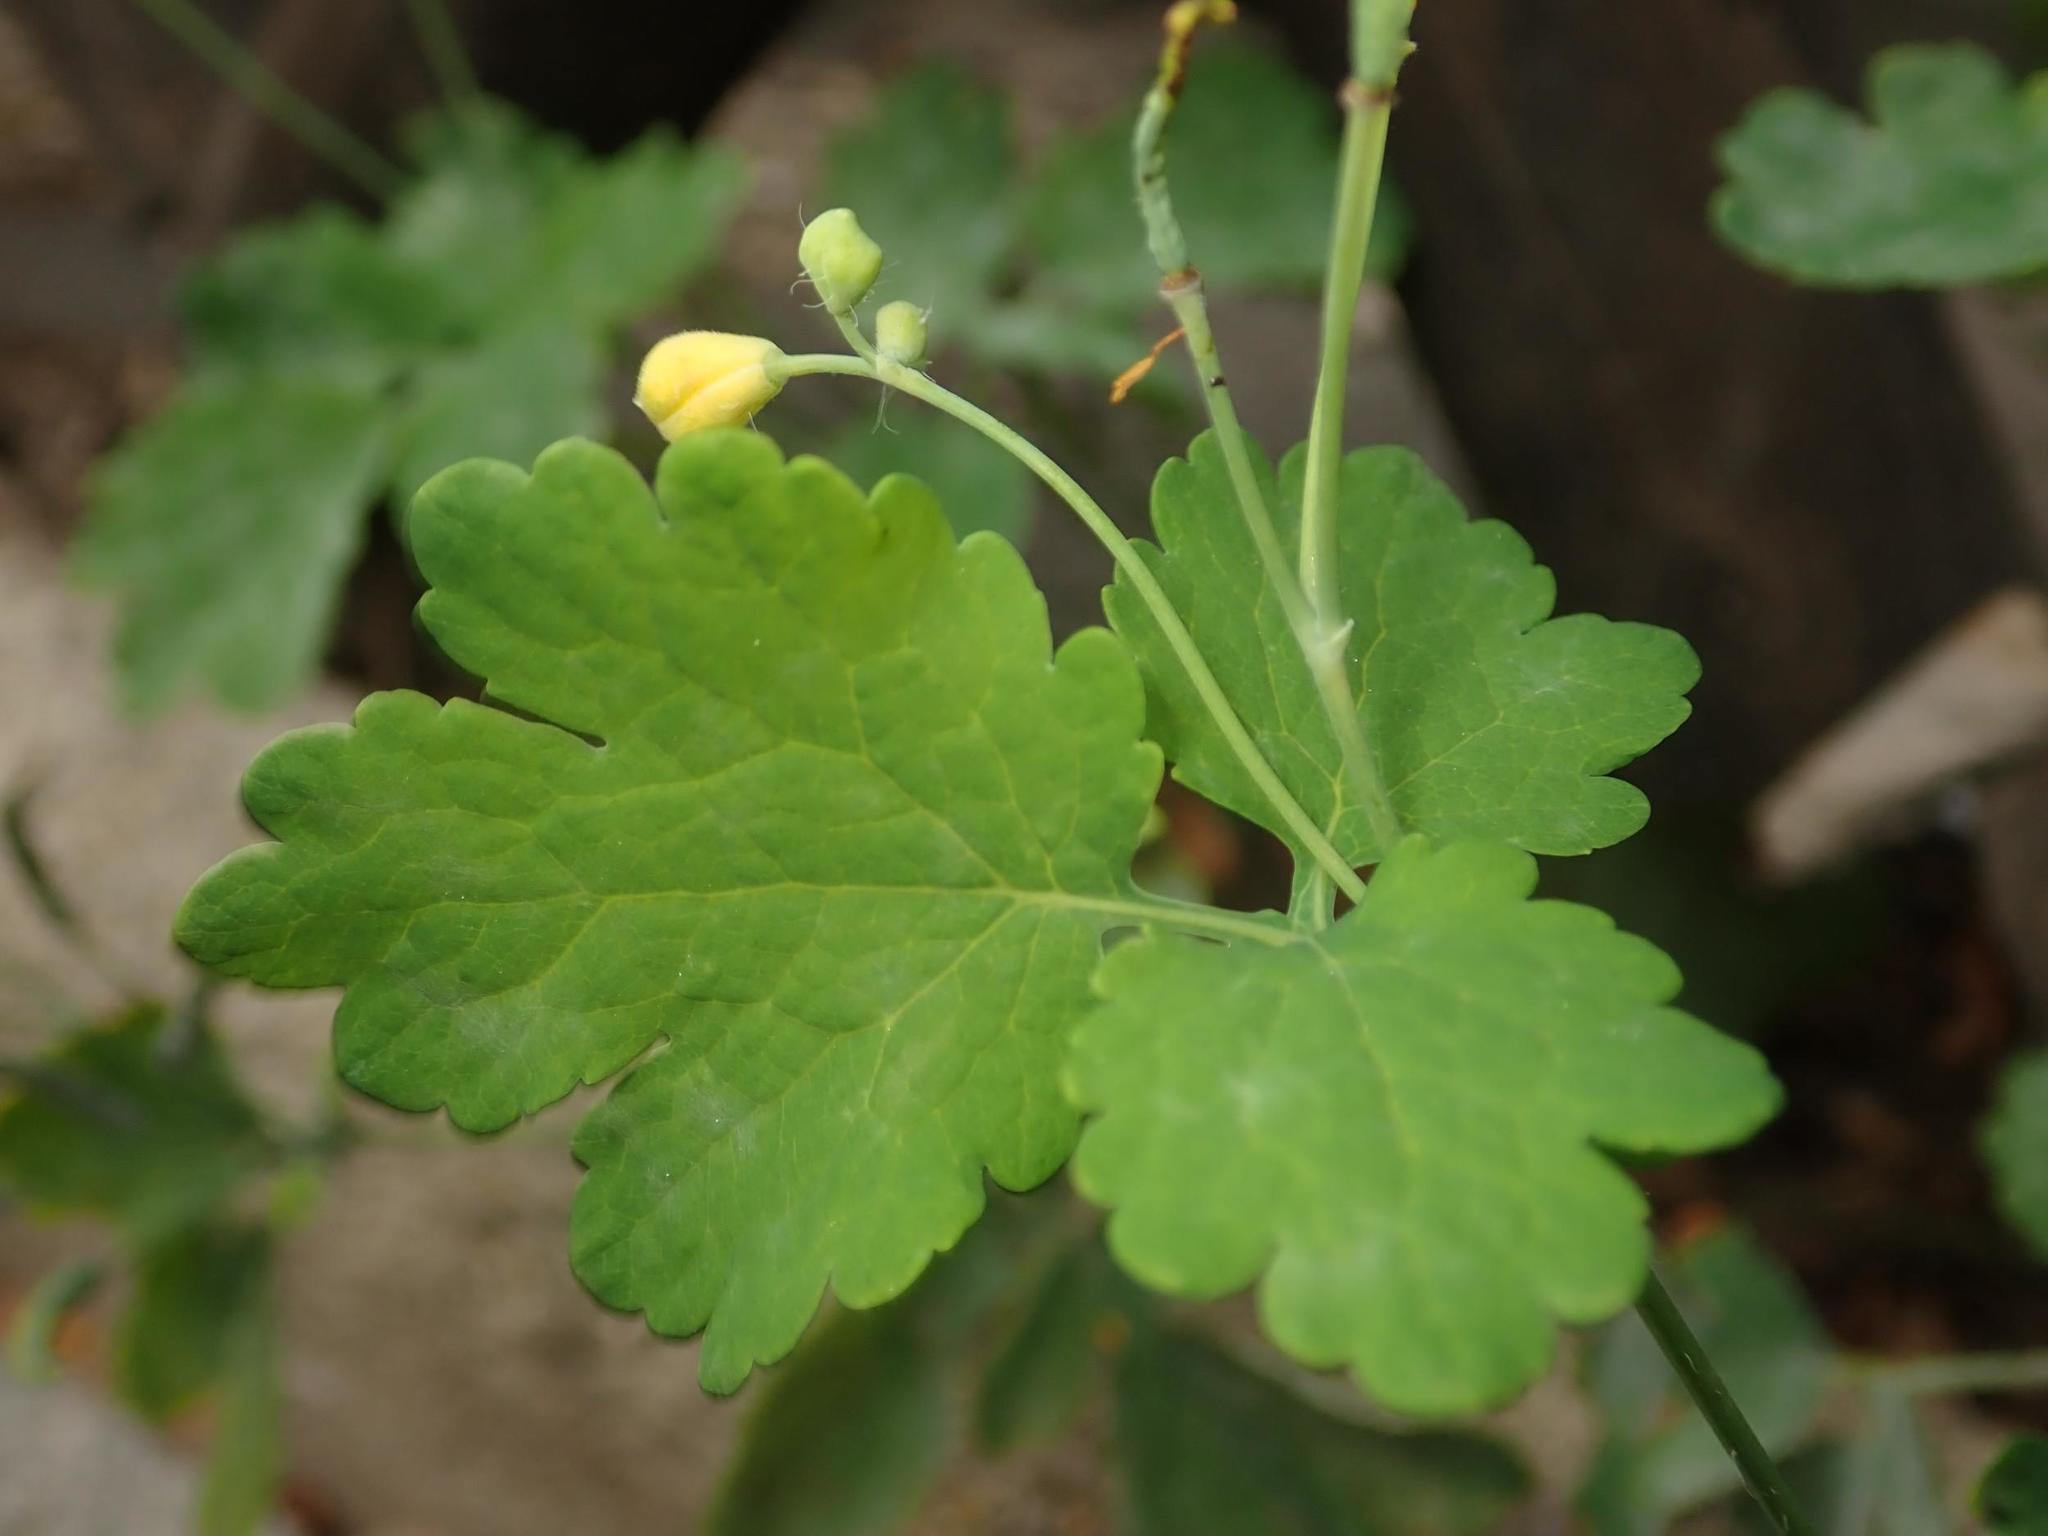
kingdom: Plantae
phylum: Tracheophyta
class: Magnoliopsida
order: Ranunculales
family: Papaveraceae
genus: Chelidonium
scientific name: Chelidonium majus
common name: Greater celandine
